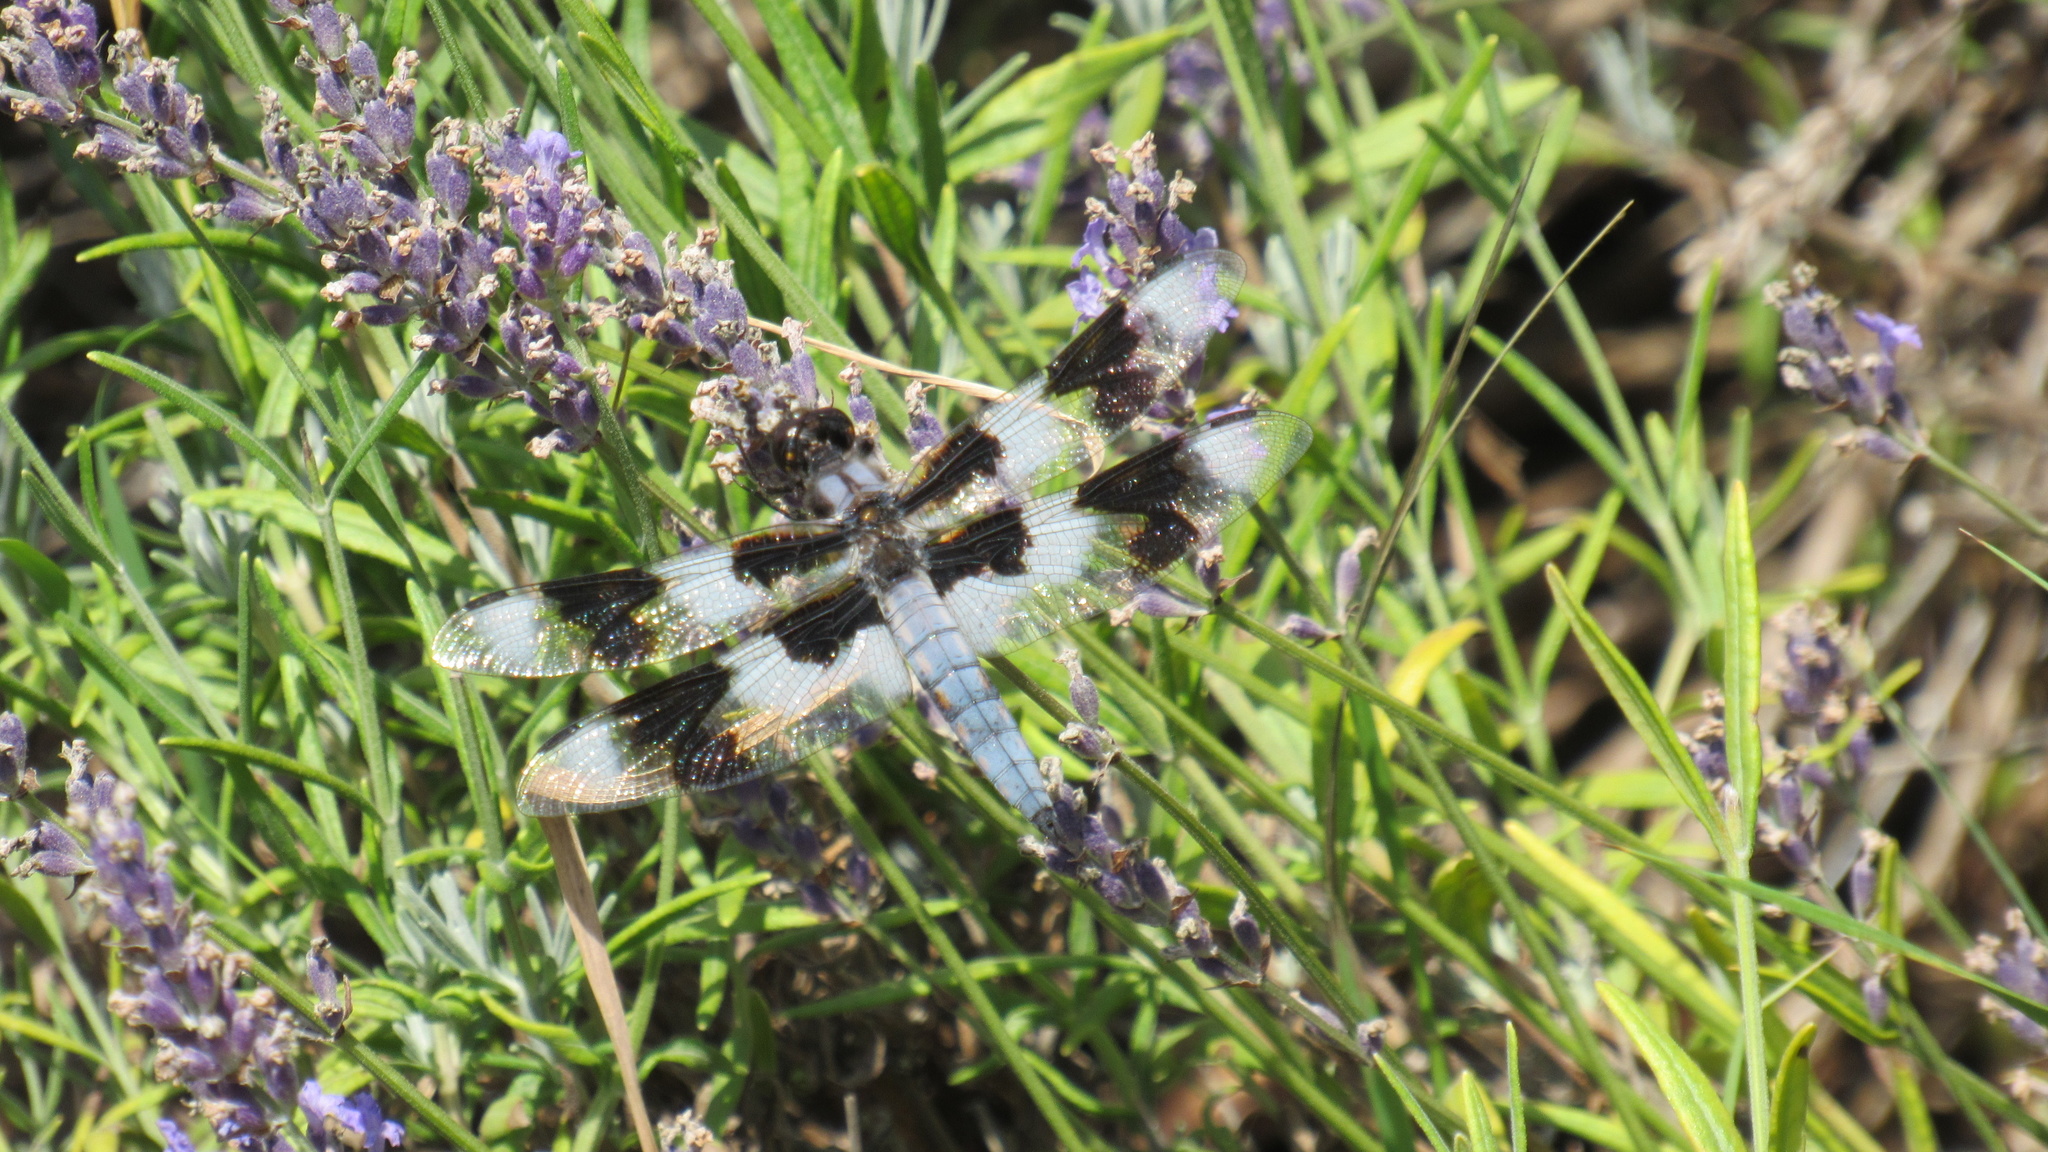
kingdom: Animalia
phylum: Arthropoda
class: Insecta
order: Odonata
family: Libellulidae
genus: Libellula
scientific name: Libellula forensis
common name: Eight-spotted skimmer
